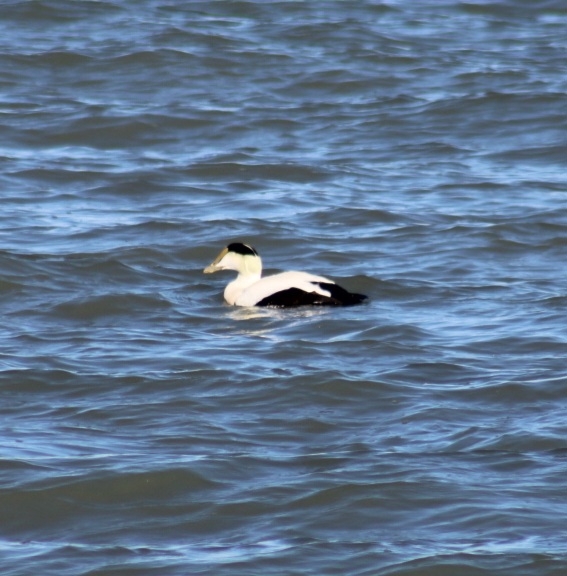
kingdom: Animalia
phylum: Chordata
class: Aves
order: Anseriformes
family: Anatidae
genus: Somateria
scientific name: Somateria mollissima
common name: Common eider
